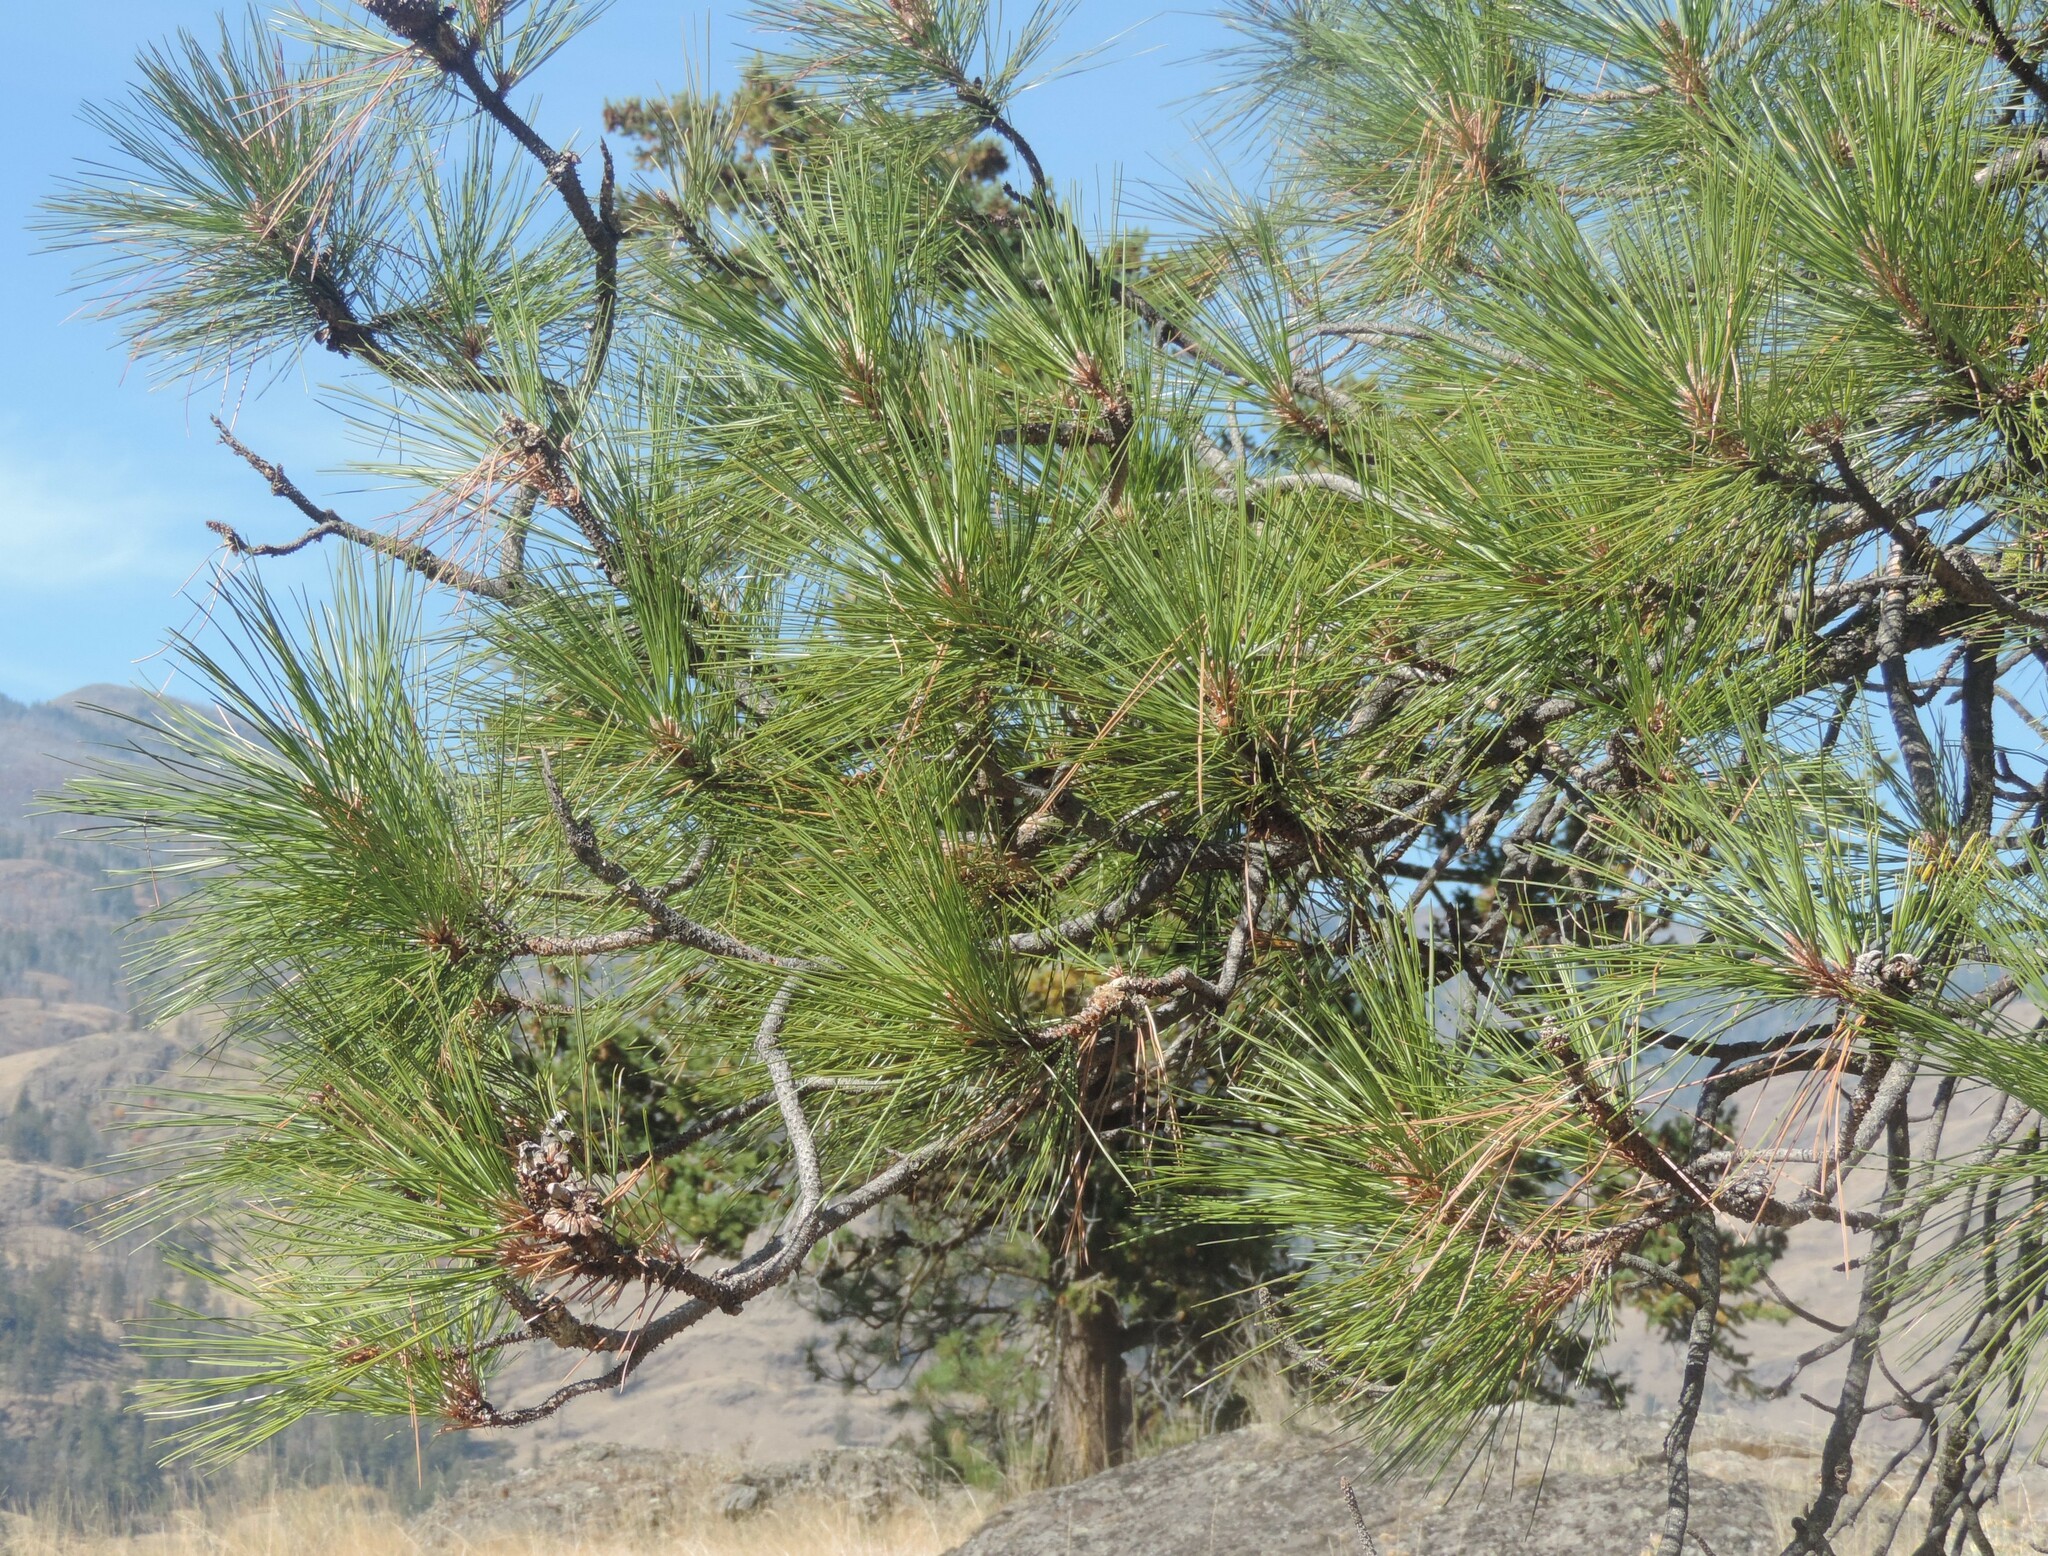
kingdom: Plantae
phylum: Tracheophyta
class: Pinopsida
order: Pinales
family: Pinaceae
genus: Pinus
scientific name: Pinus ponderosa
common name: Western yellow-pine
